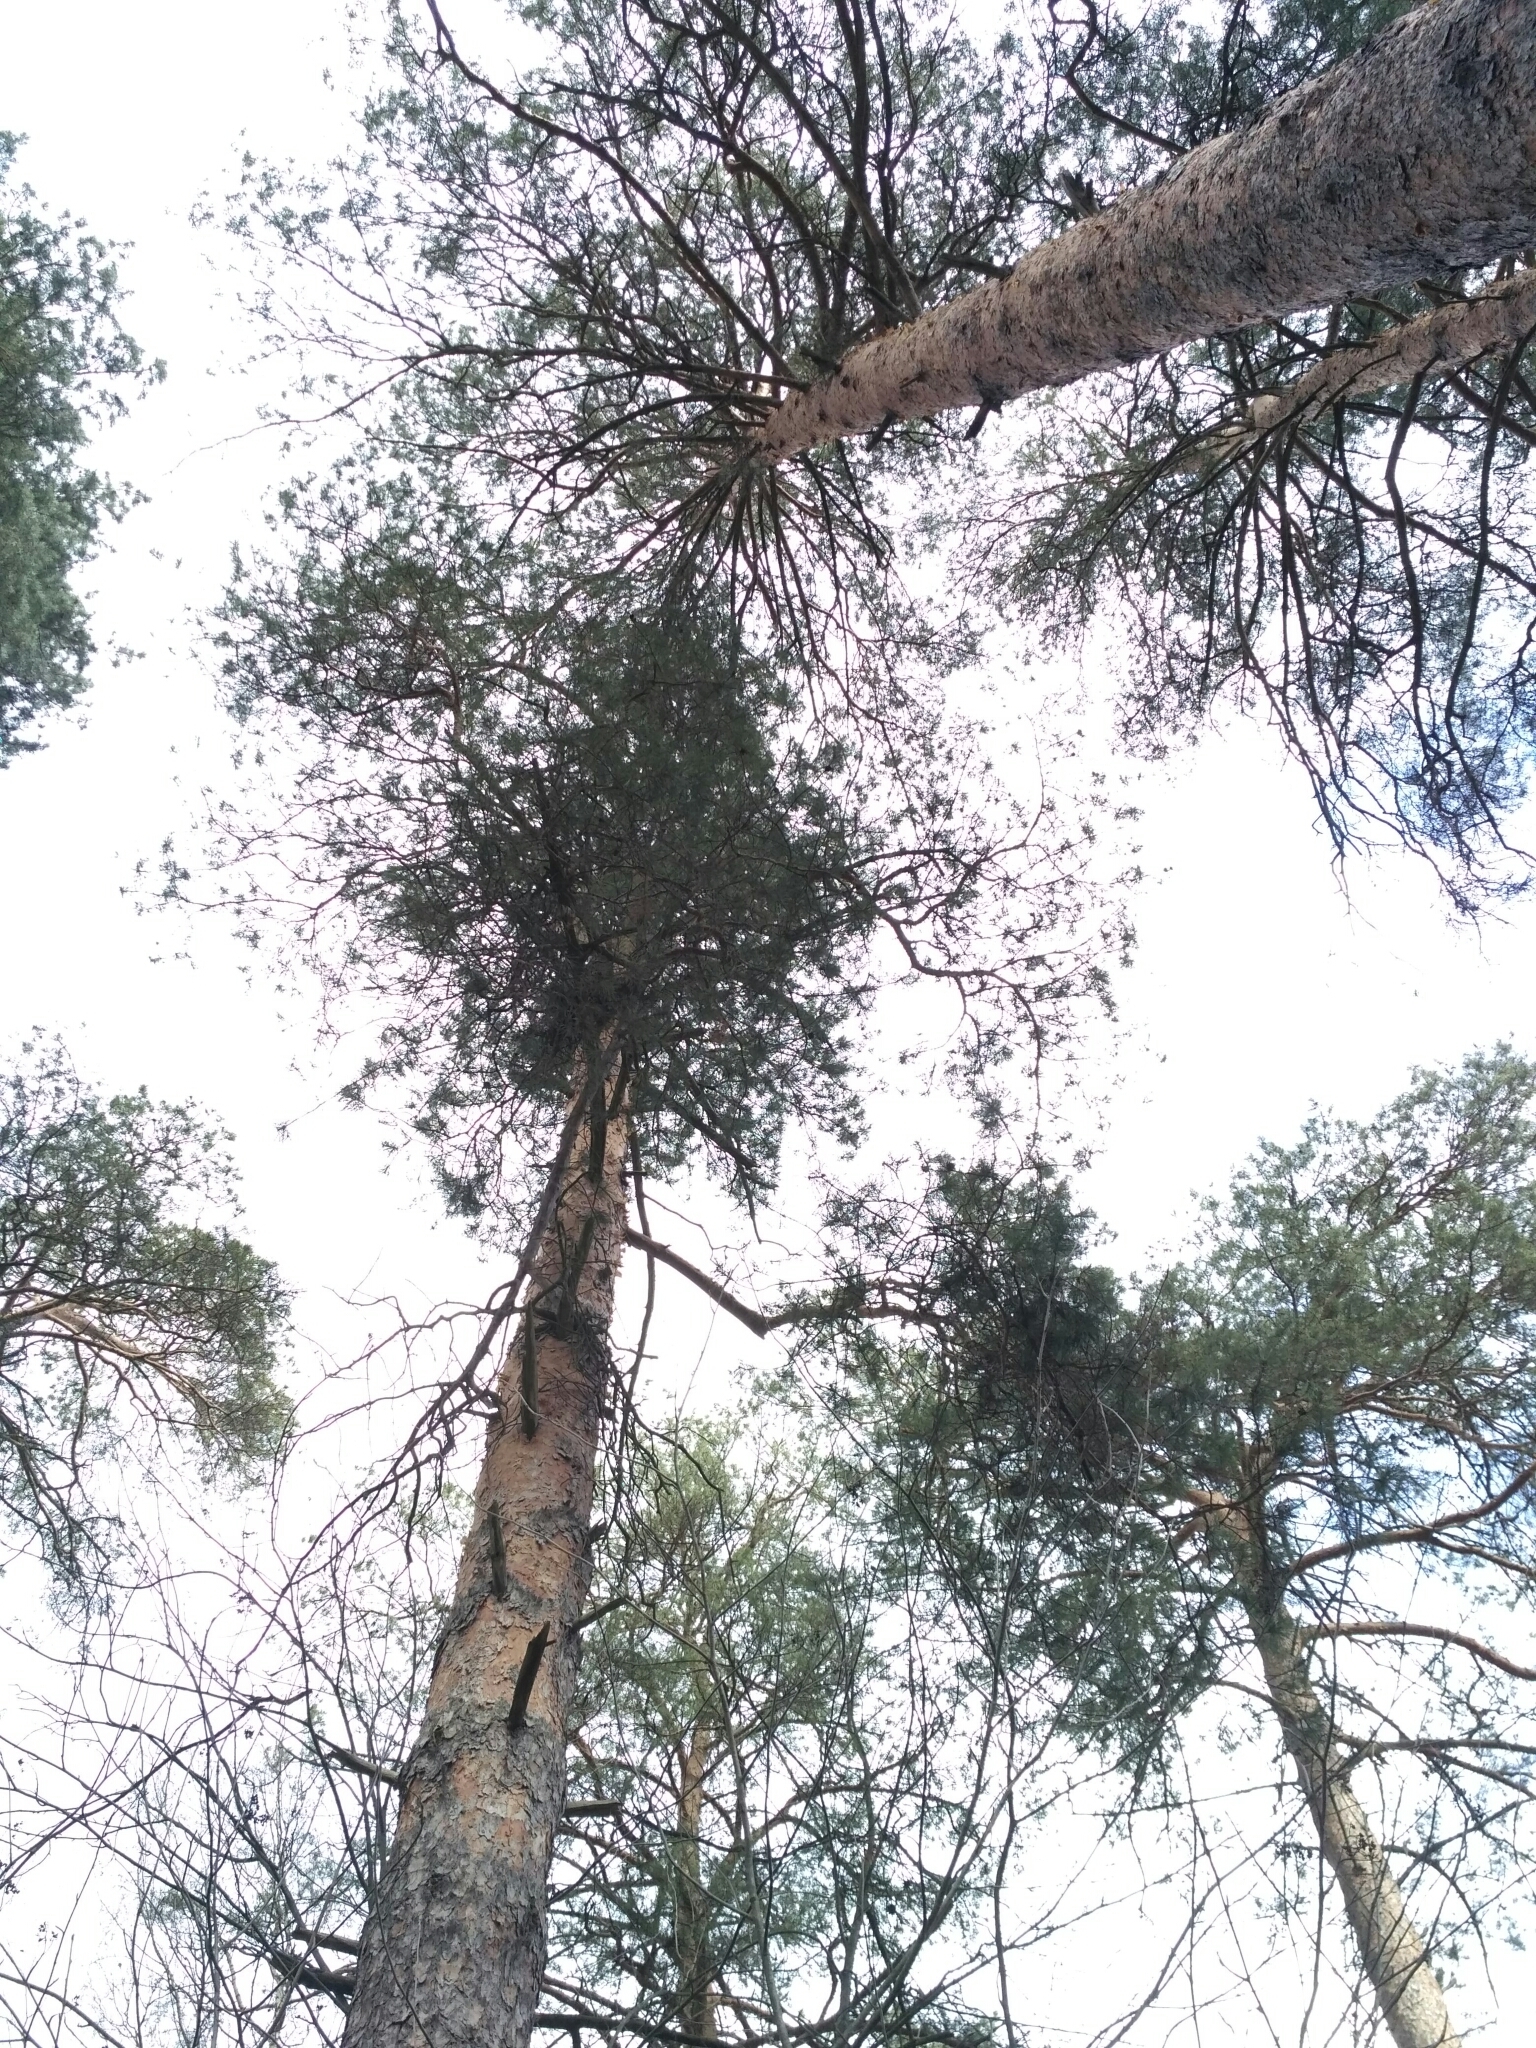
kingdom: Plantae
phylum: Tracheophyta
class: Pinopsida
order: Pinales
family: Pinaceae
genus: Pinus
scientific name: Pinus sylvestris
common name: Scots pine
